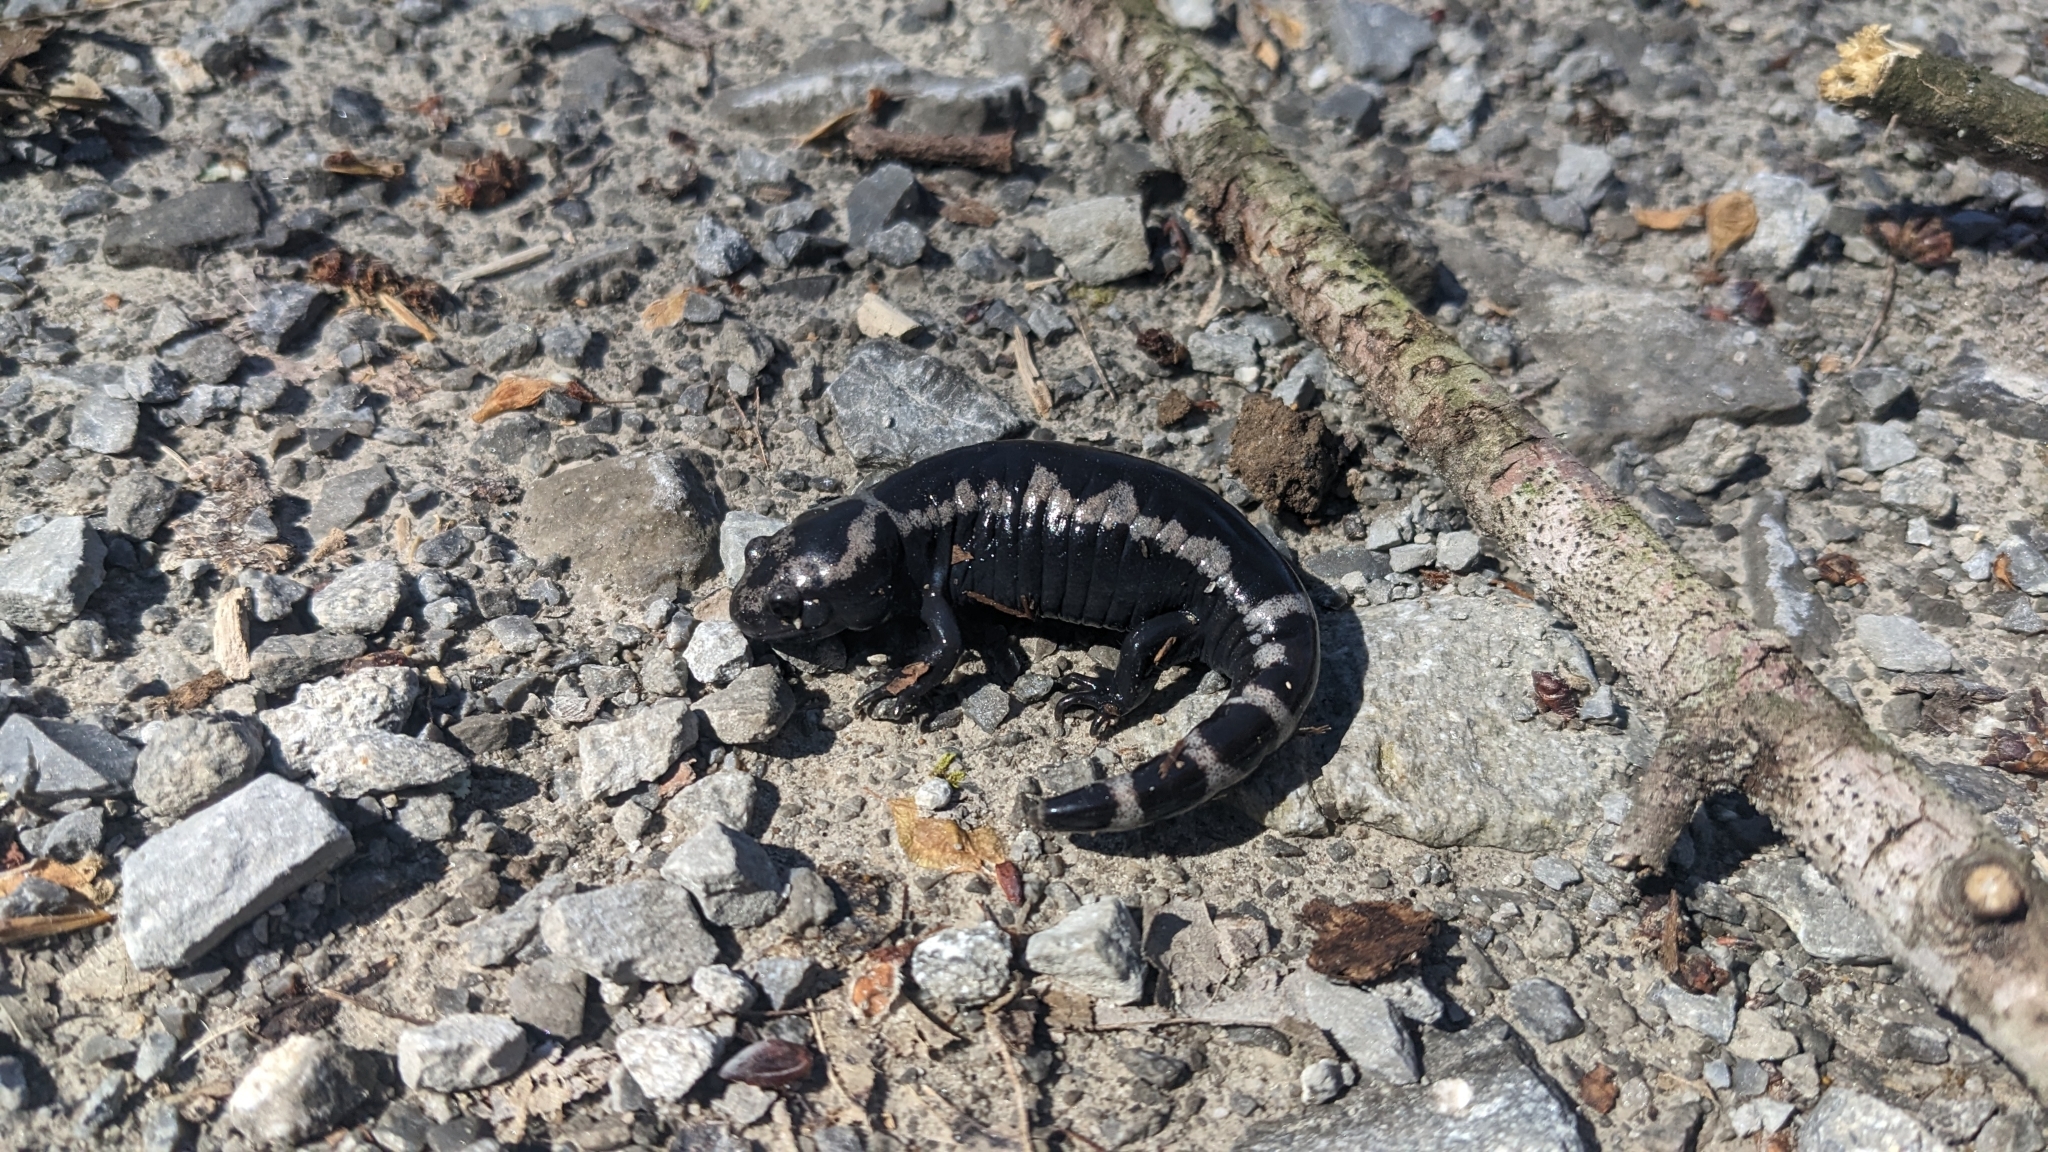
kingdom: Animalia
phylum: Chordata
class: Amphibia
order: Caudata
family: Ambystomatidae
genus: Ambystoma
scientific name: Ambystoma opacum
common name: Marbled salamander
